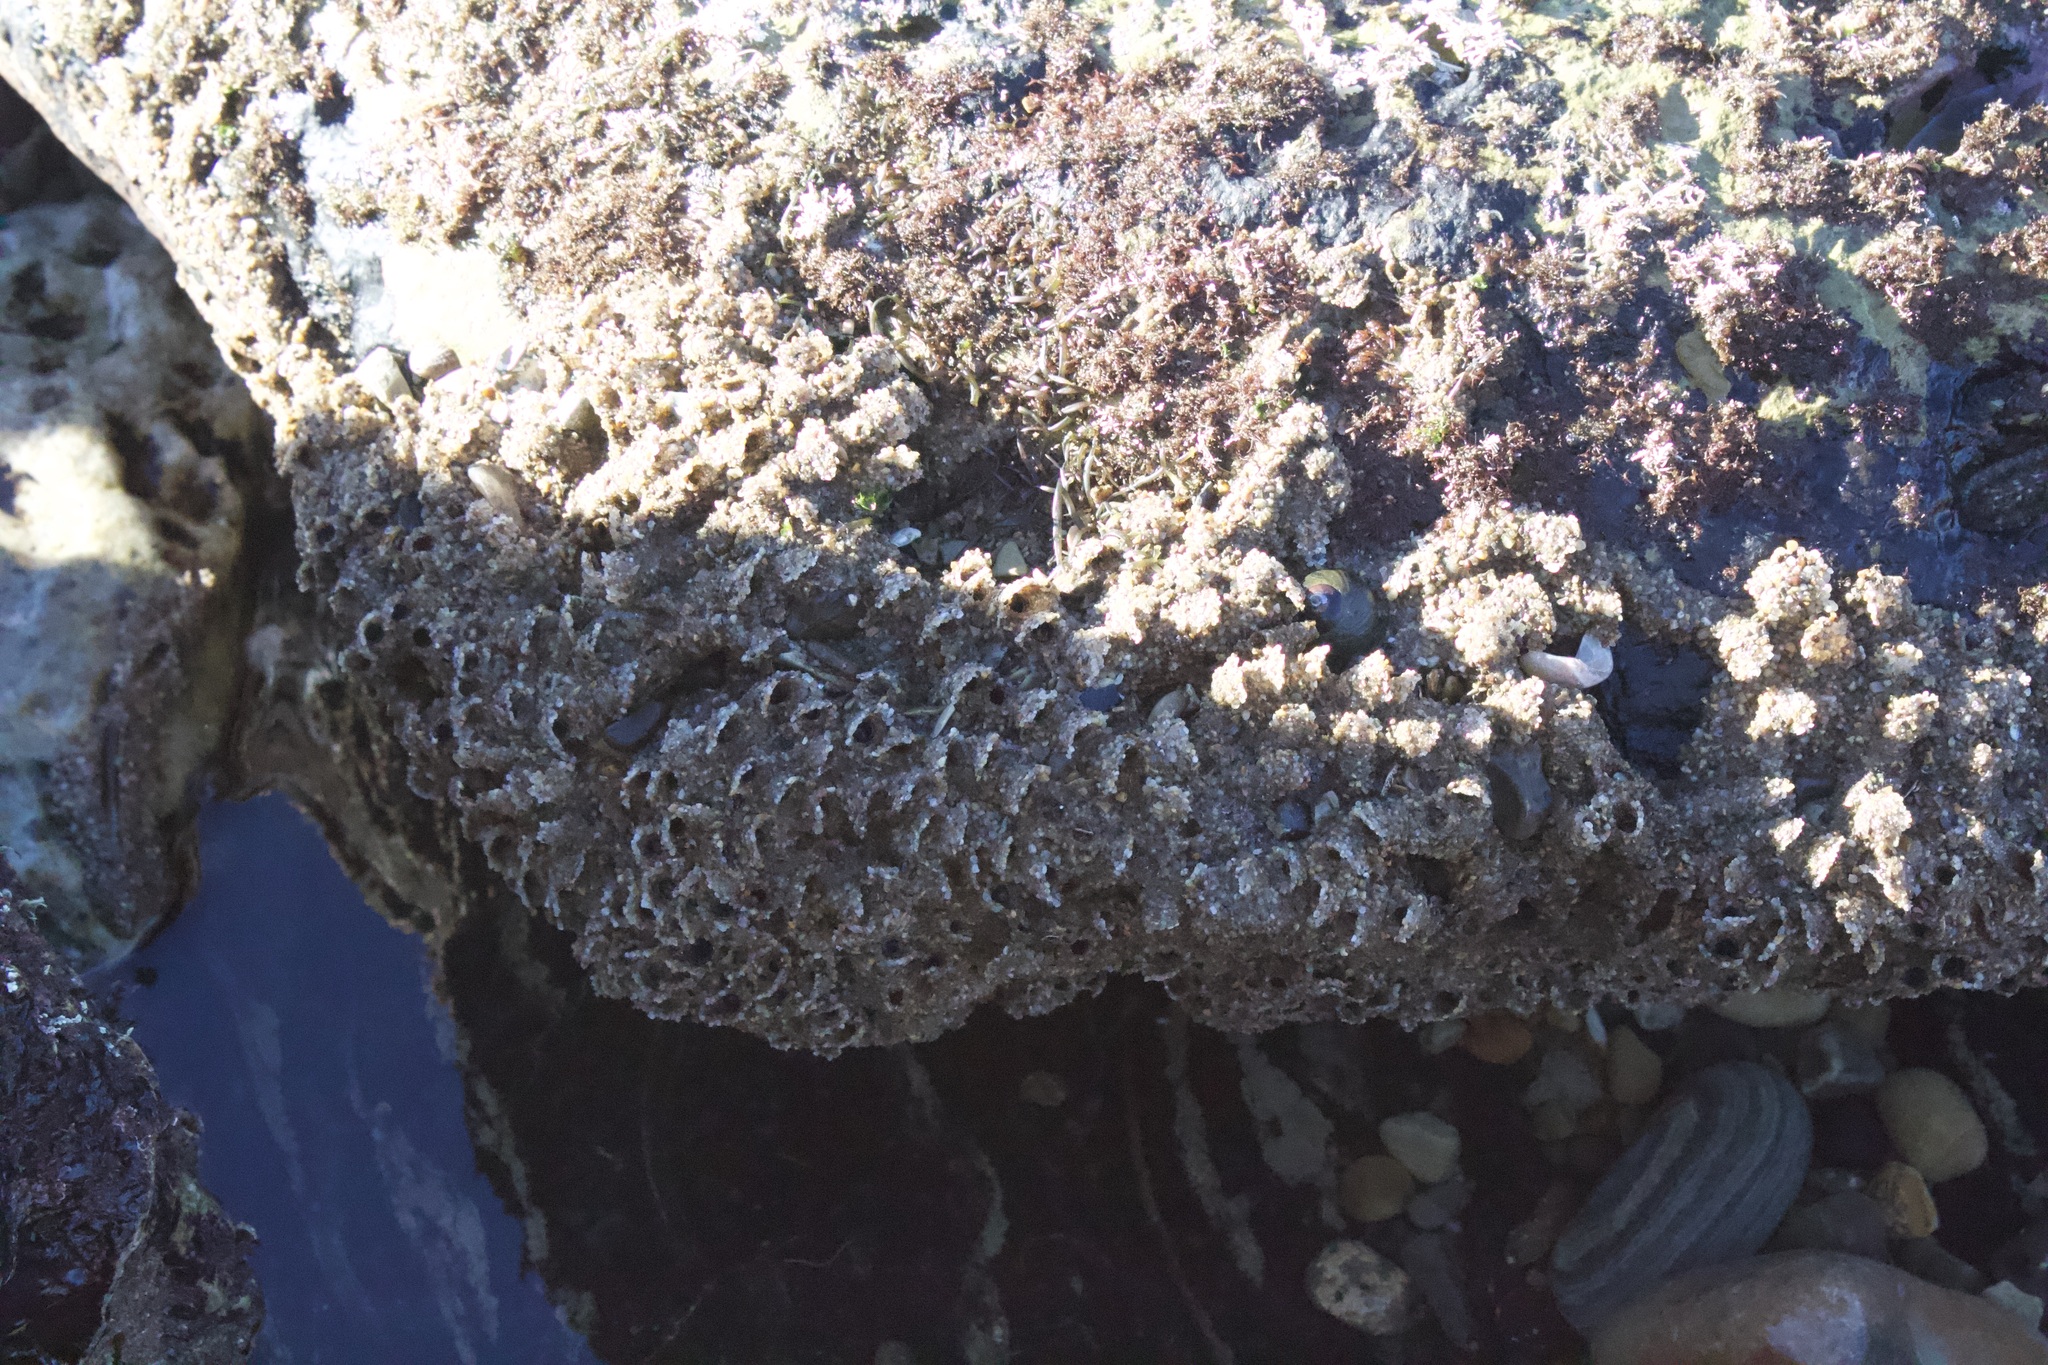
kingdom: Animalia
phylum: Annelida
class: Polychaeta
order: Sabellida
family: Sabellariidae
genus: Phragmatopoma
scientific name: Phragmatopoma californica
